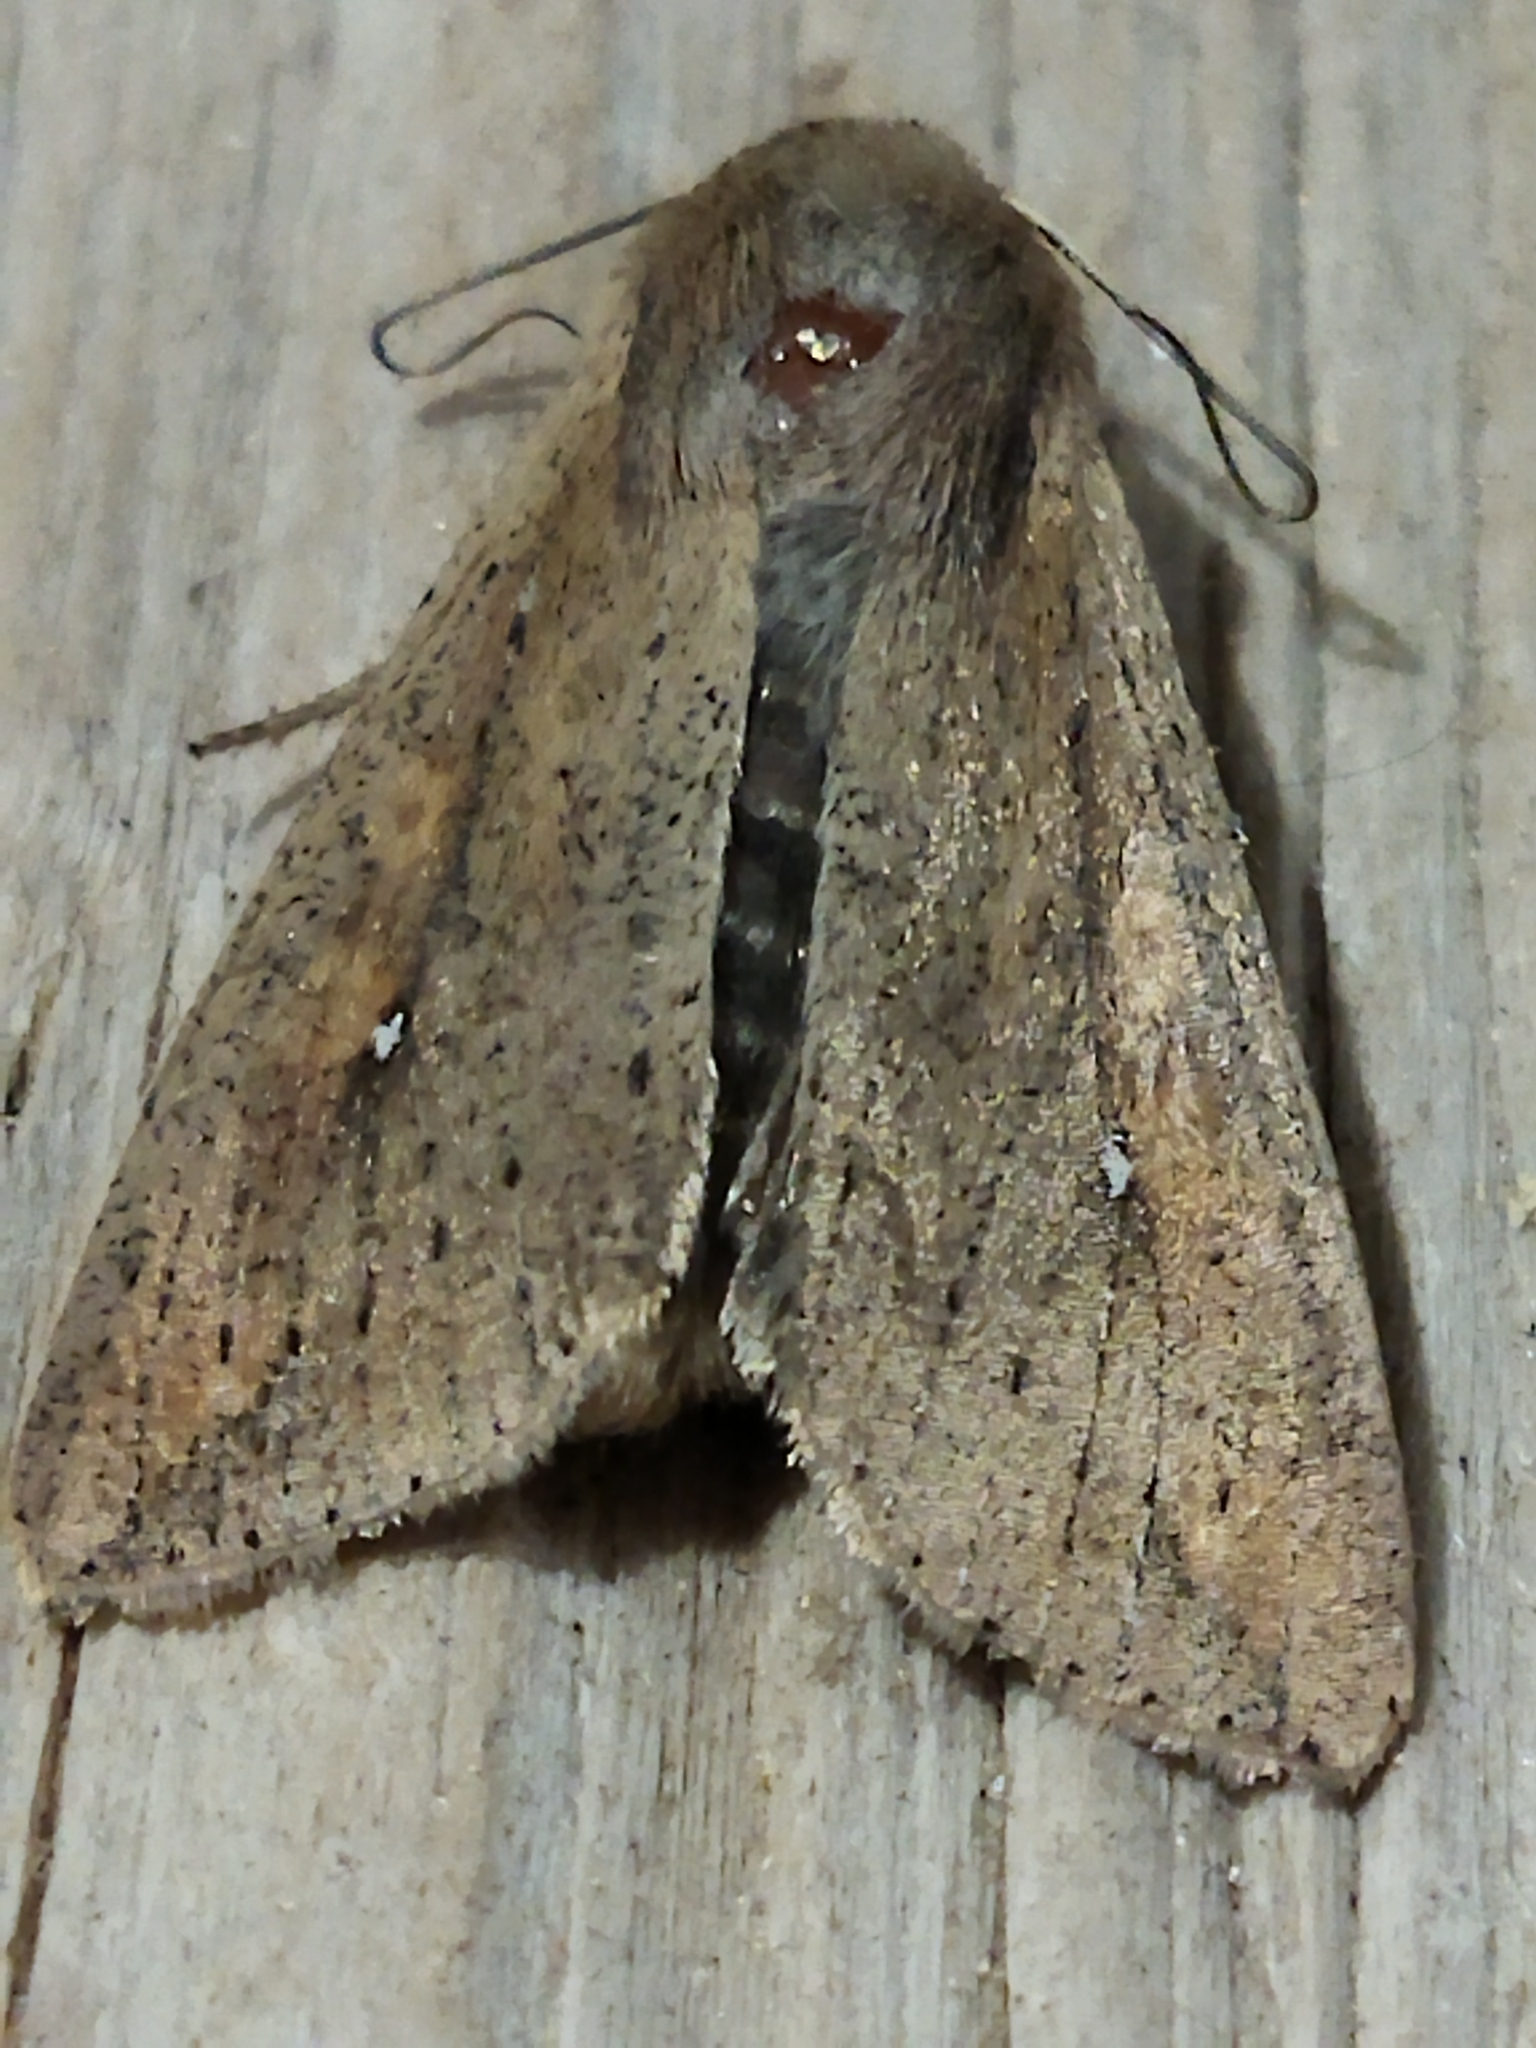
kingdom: Animalia
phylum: Arthropoda
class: Insecta
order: Lepidoptera
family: Noctuidae
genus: Mythimna
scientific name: Mythimna unipuncta
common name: White-speck
